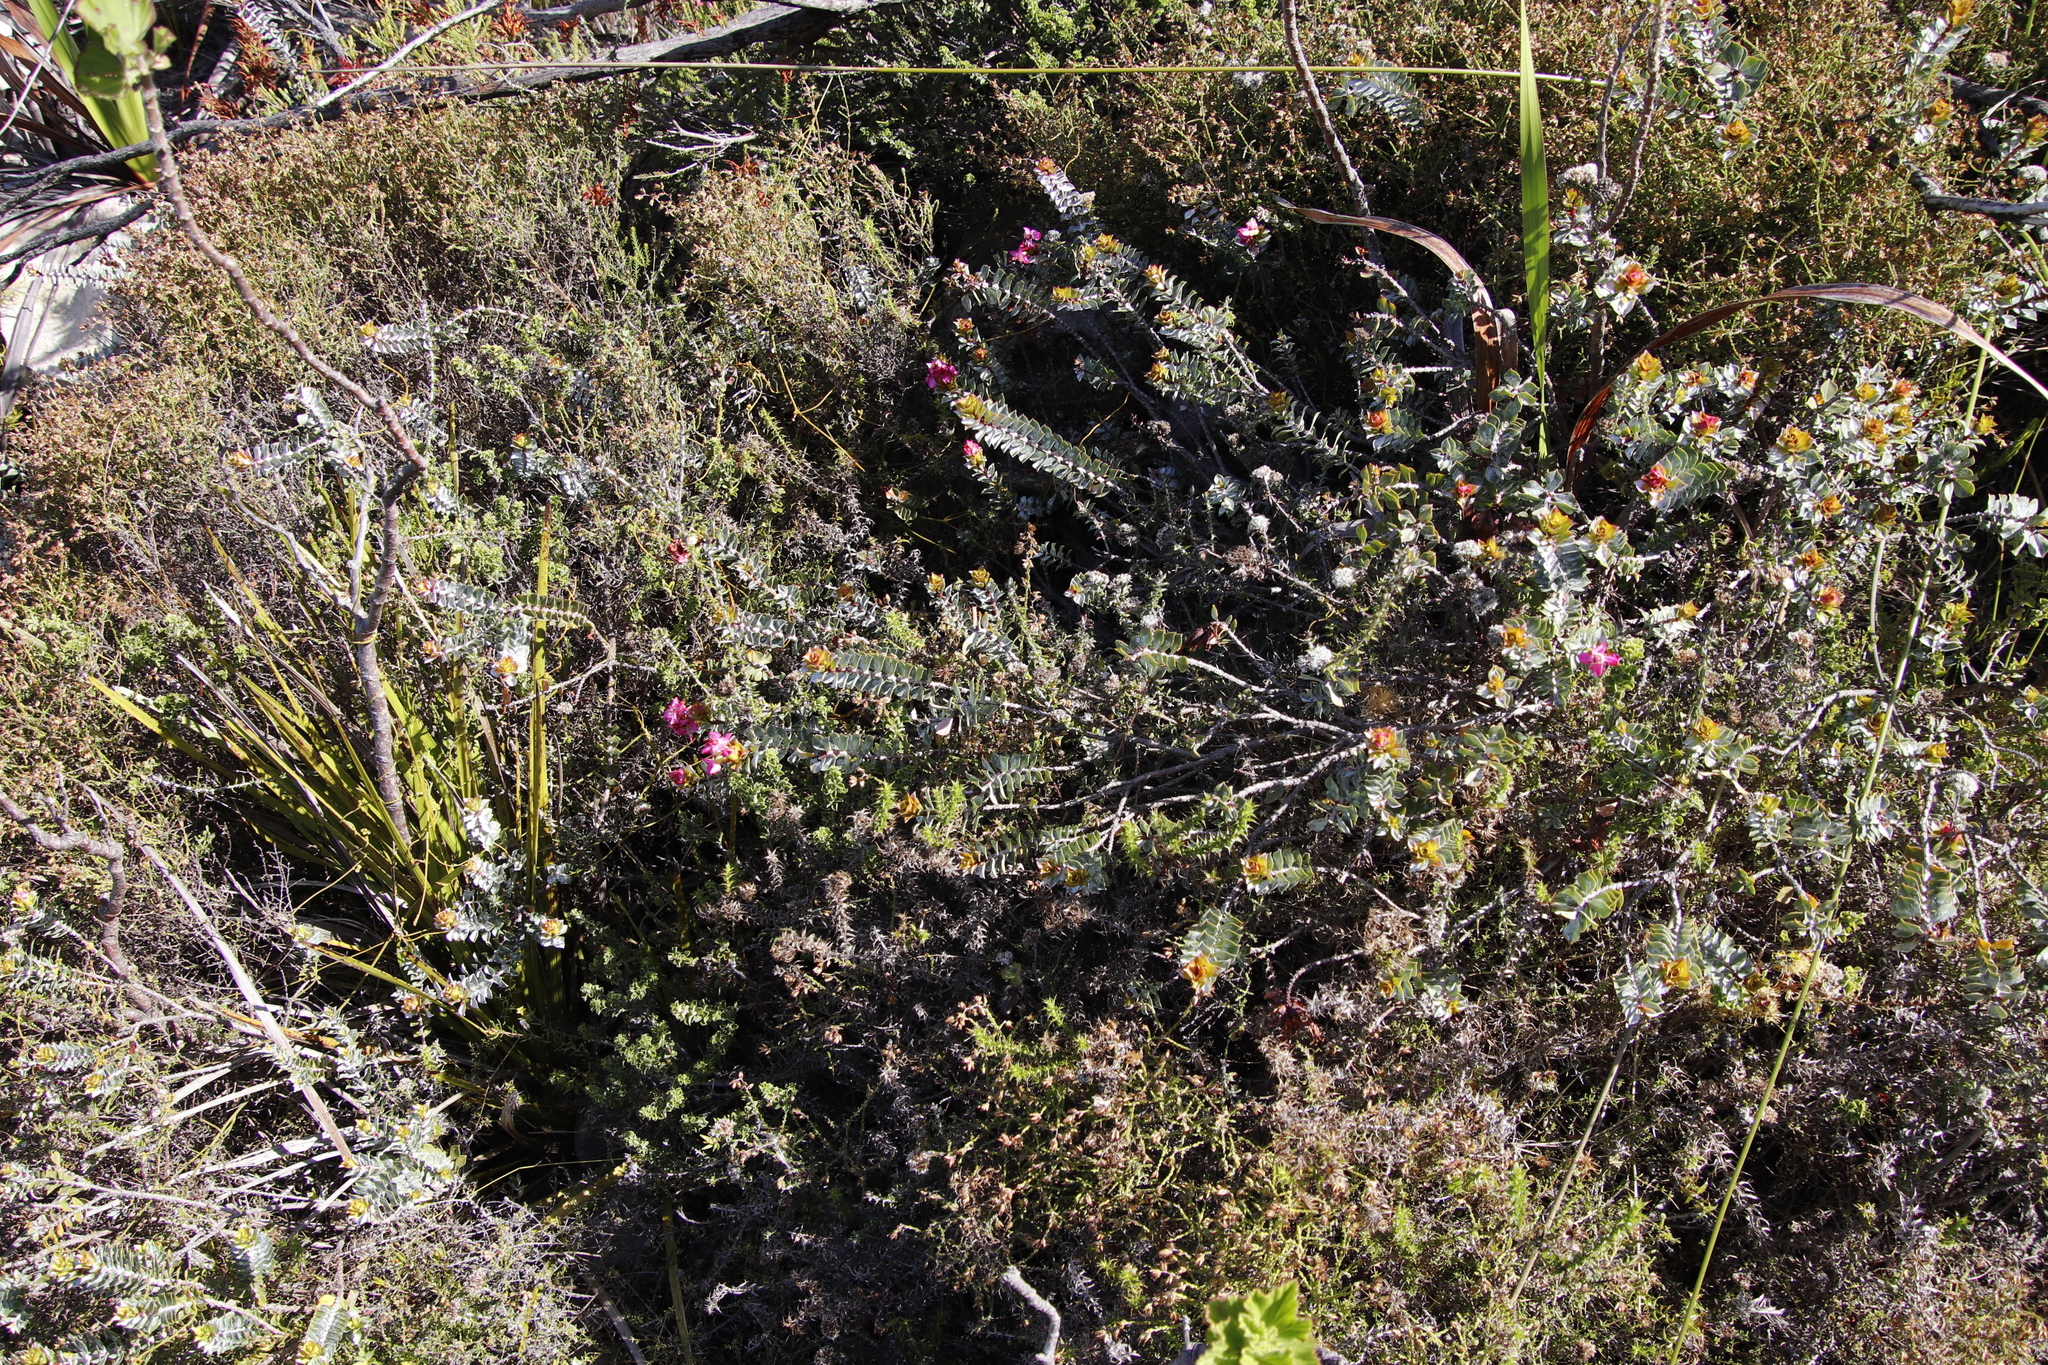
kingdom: Plantae
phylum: Tracheophyta
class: Magnoliopsida
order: Myrtales
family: Penaeaceae
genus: Saltera
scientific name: Saltera sarcocolla
